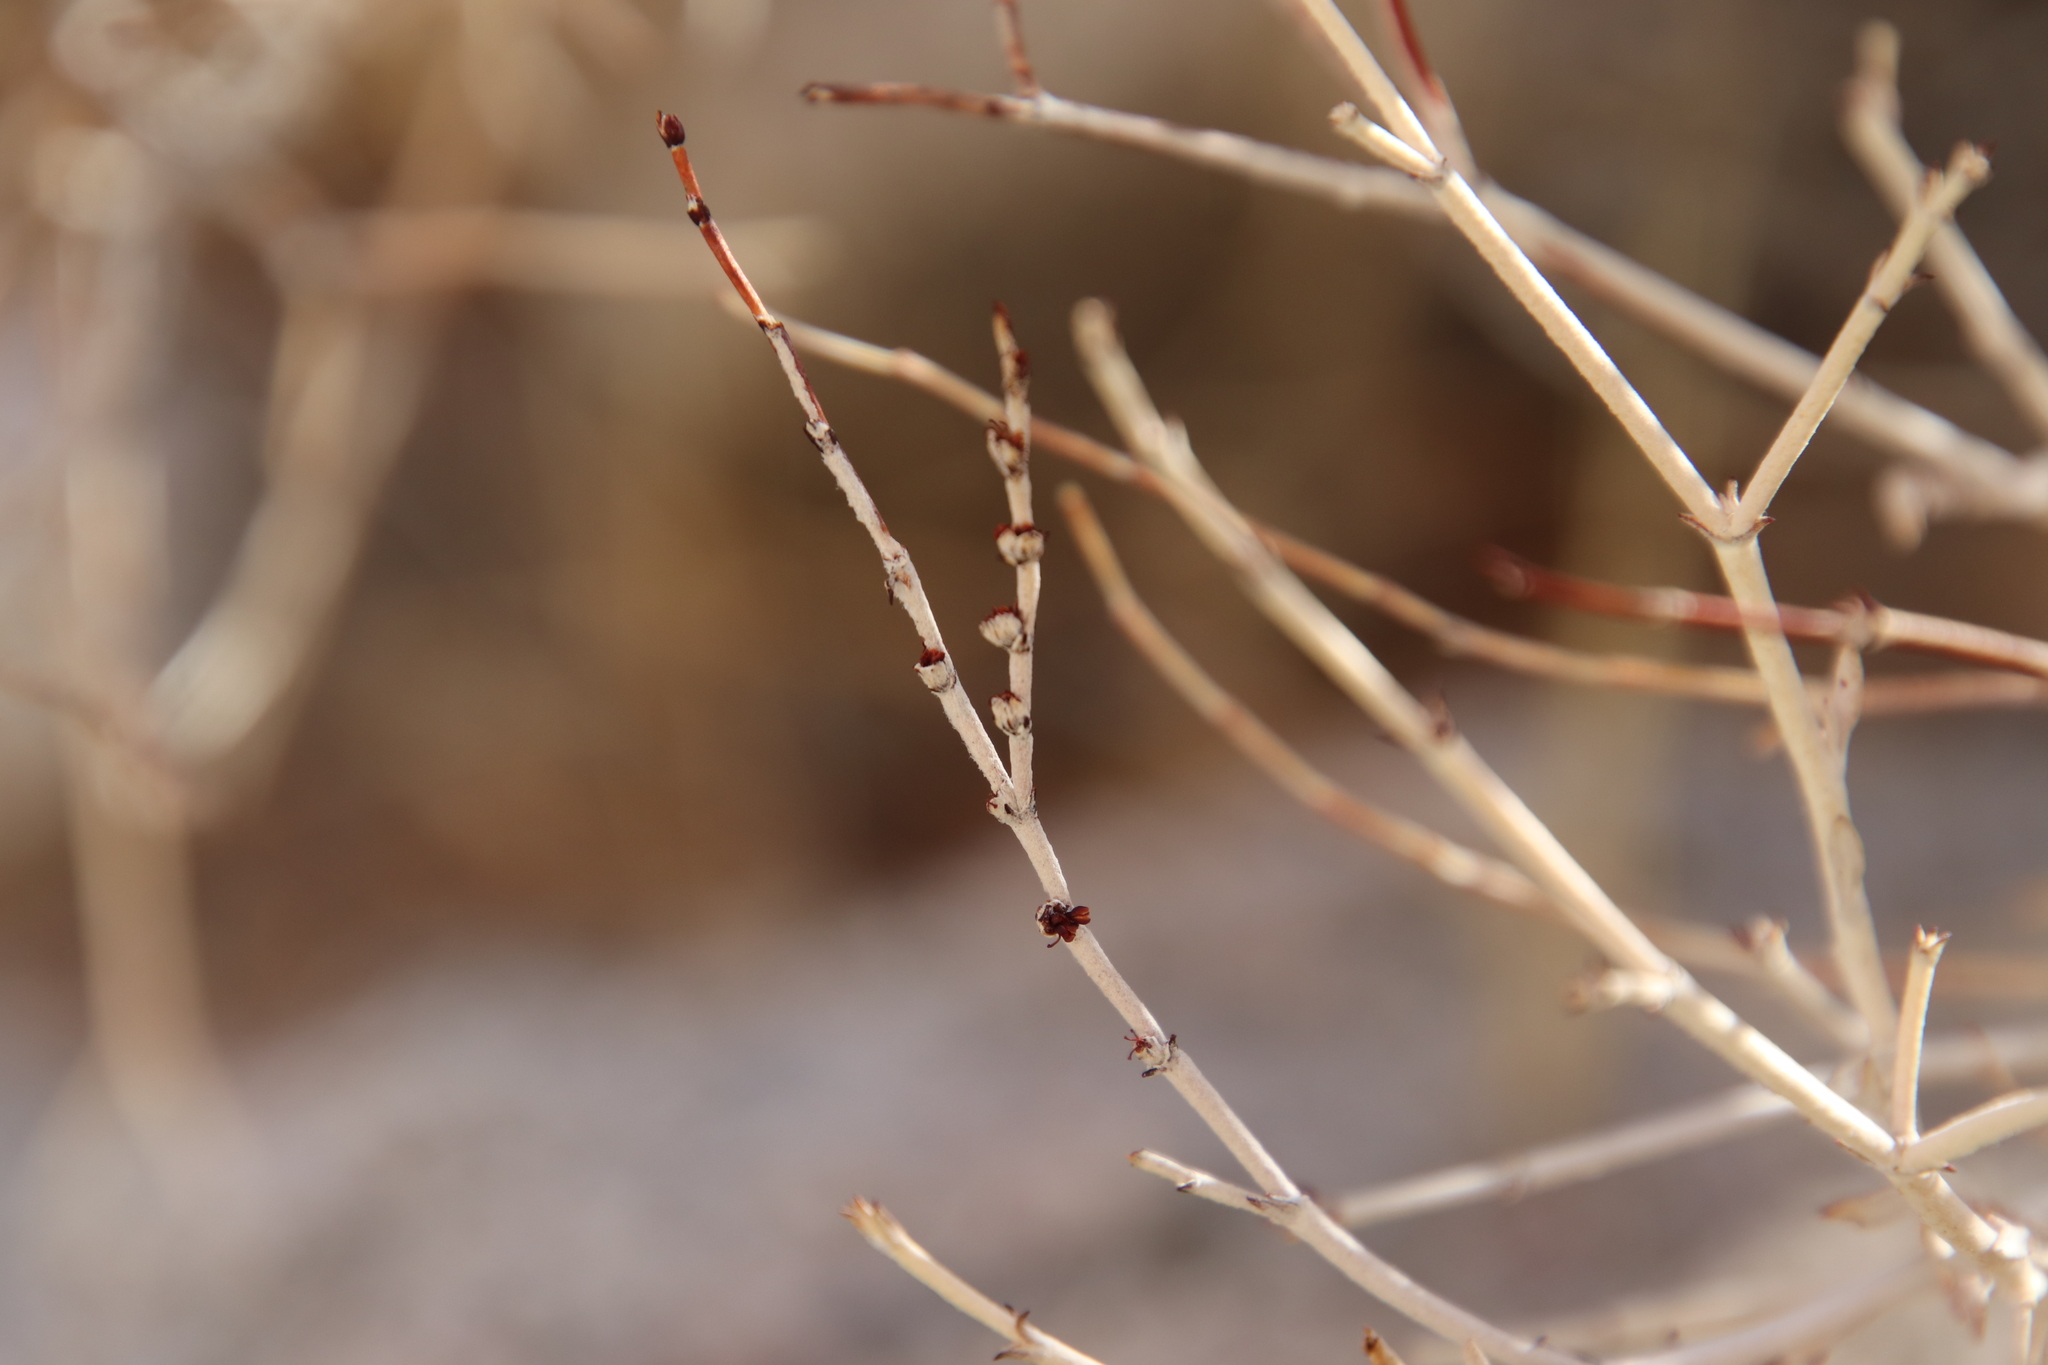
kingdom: Plantae
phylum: Tracheophyta
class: Magnoliopsida
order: Caryophyllales
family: Polygonaceae
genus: Eriogonum
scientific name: Eriogonum wrightii
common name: Bastard-sage
